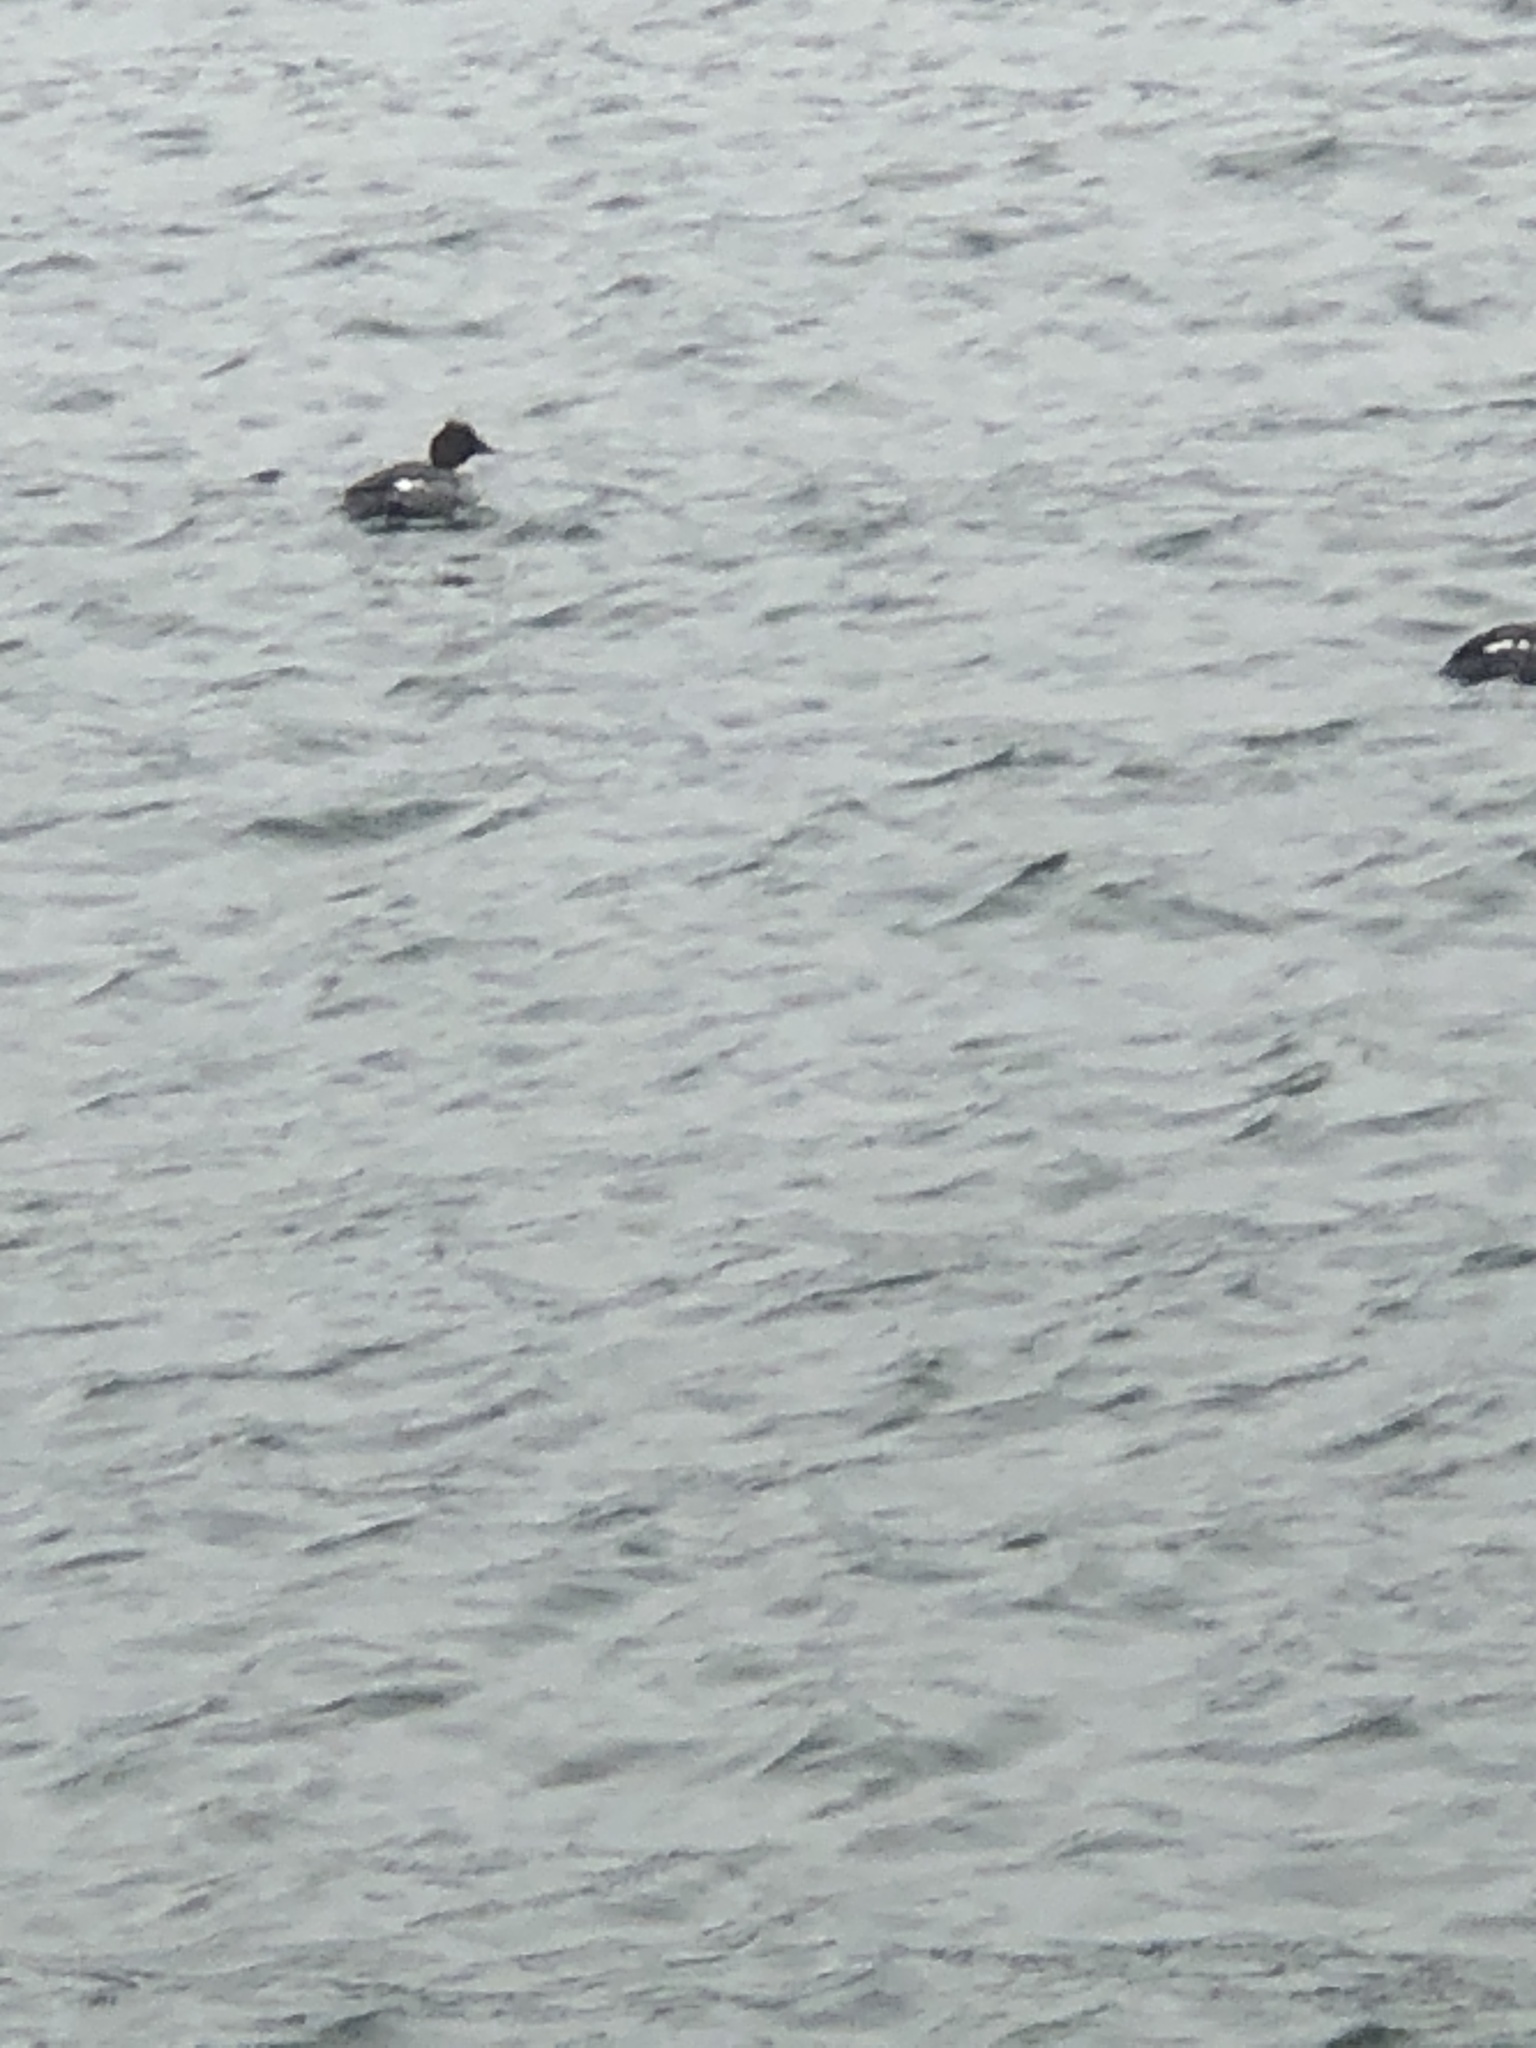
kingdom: Animalia
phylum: Chordata
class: Aves
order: Anseriformes
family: Anatidae
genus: Bucephala
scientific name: Bucephala clangula
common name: Common goldeneye
